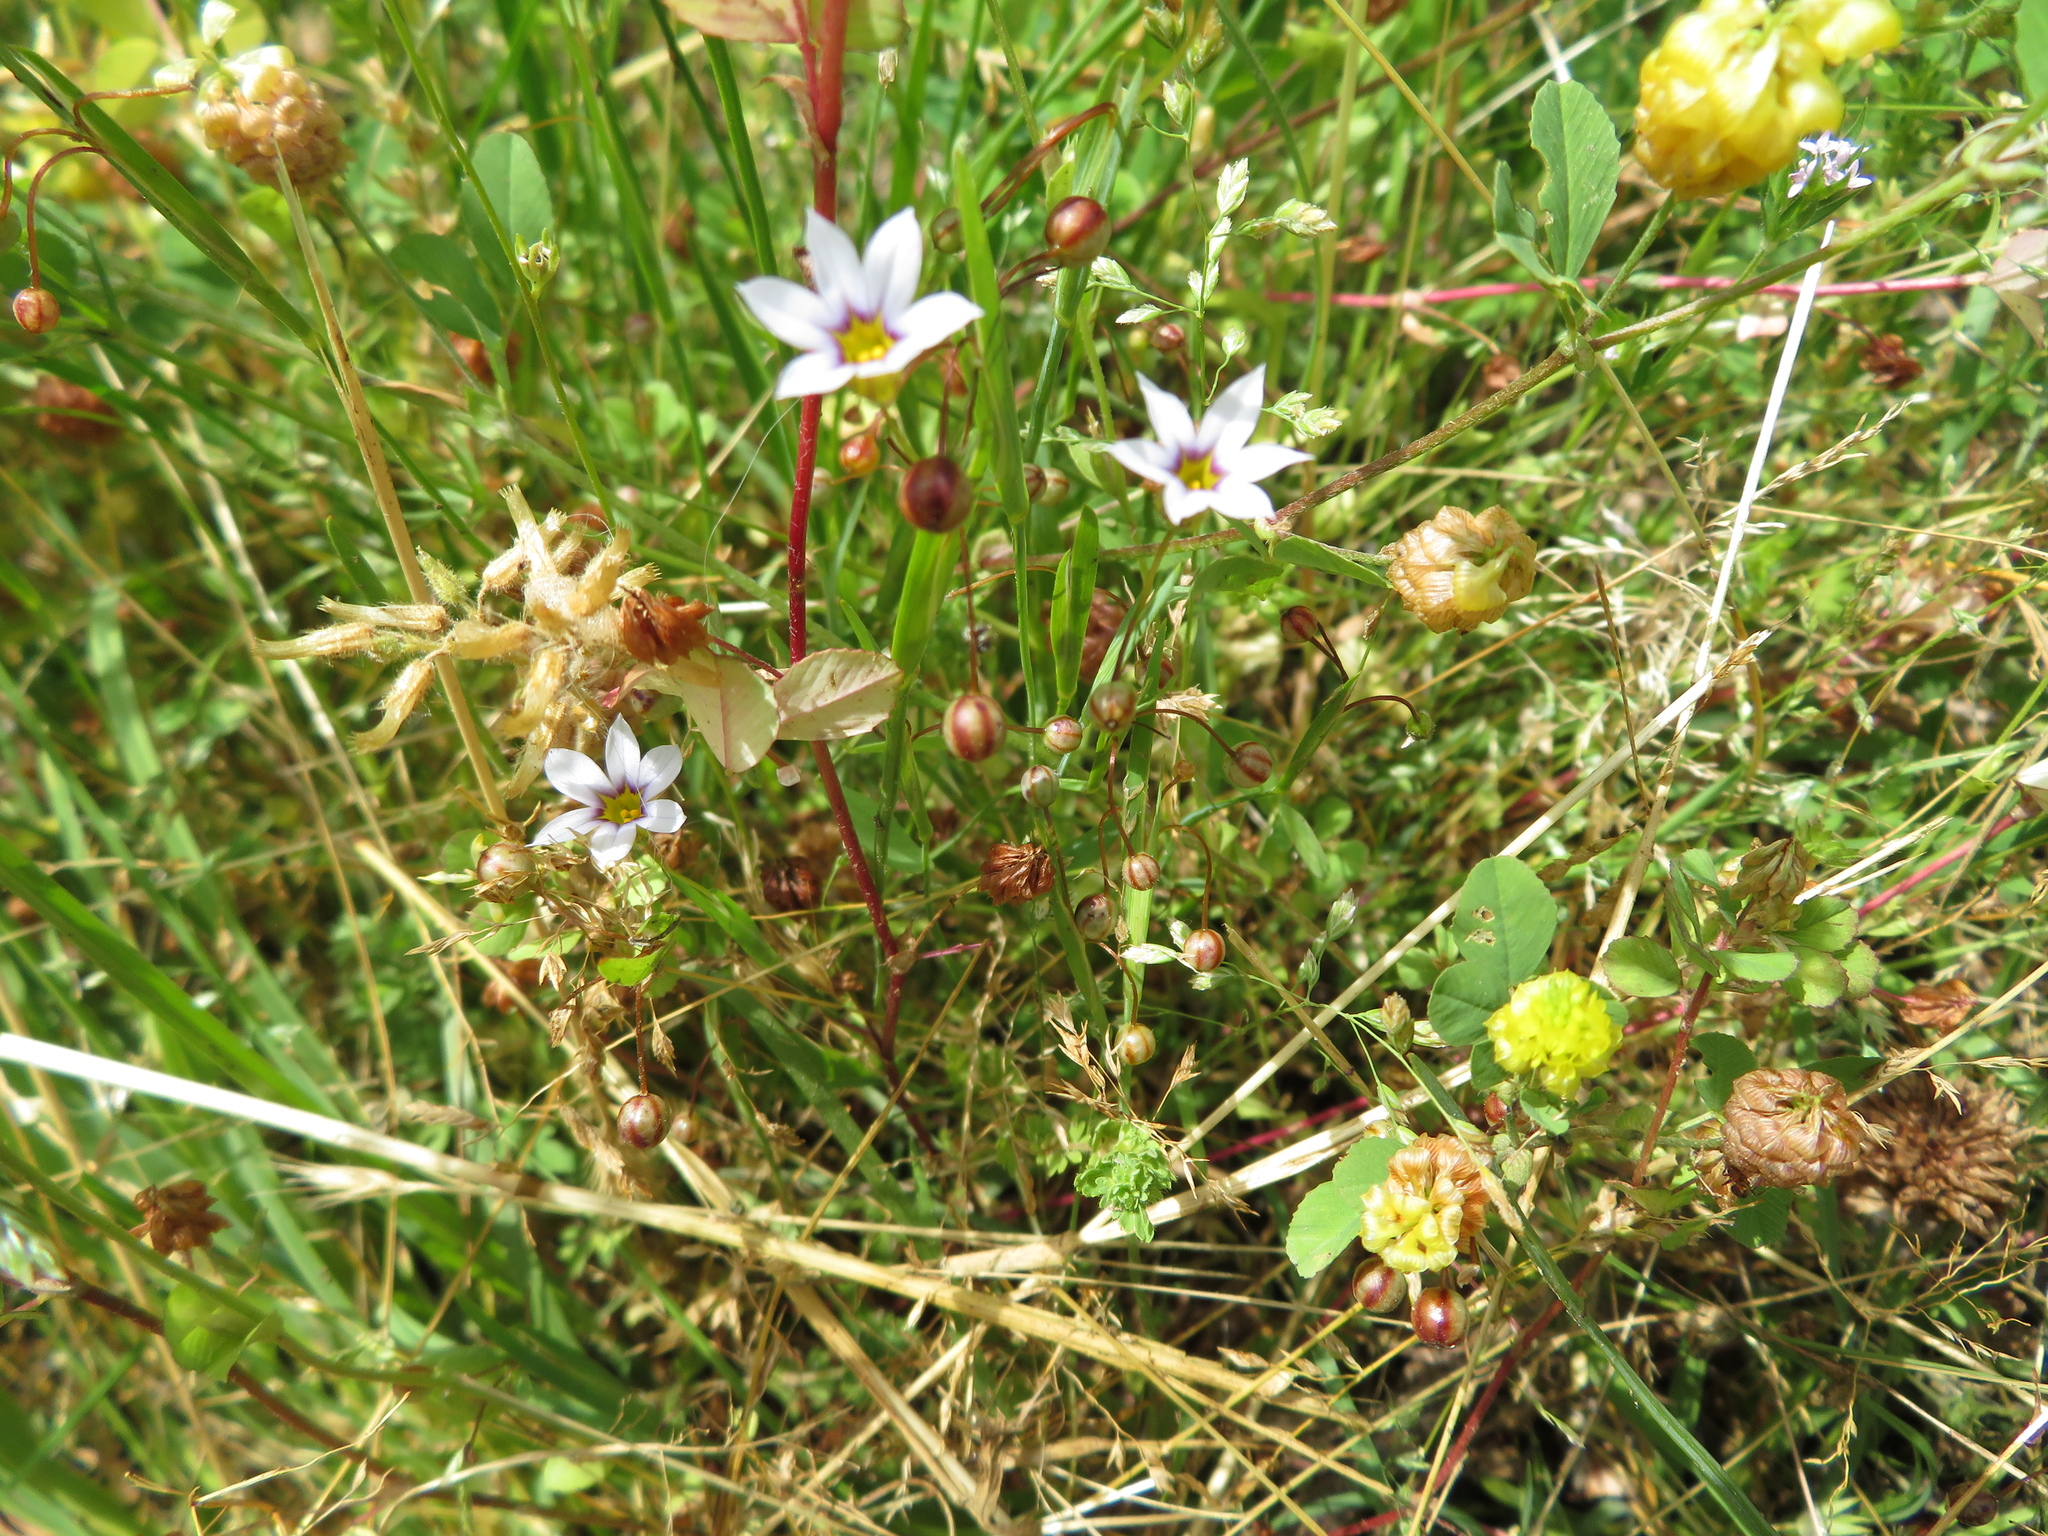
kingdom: Plantae
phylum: Tracheophyta
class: Liliopsida
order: Asparagales
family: Iridaceae
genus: Sisyrinchium
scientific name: Sisyrinchium micranthum
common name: Bermuda pigroot
